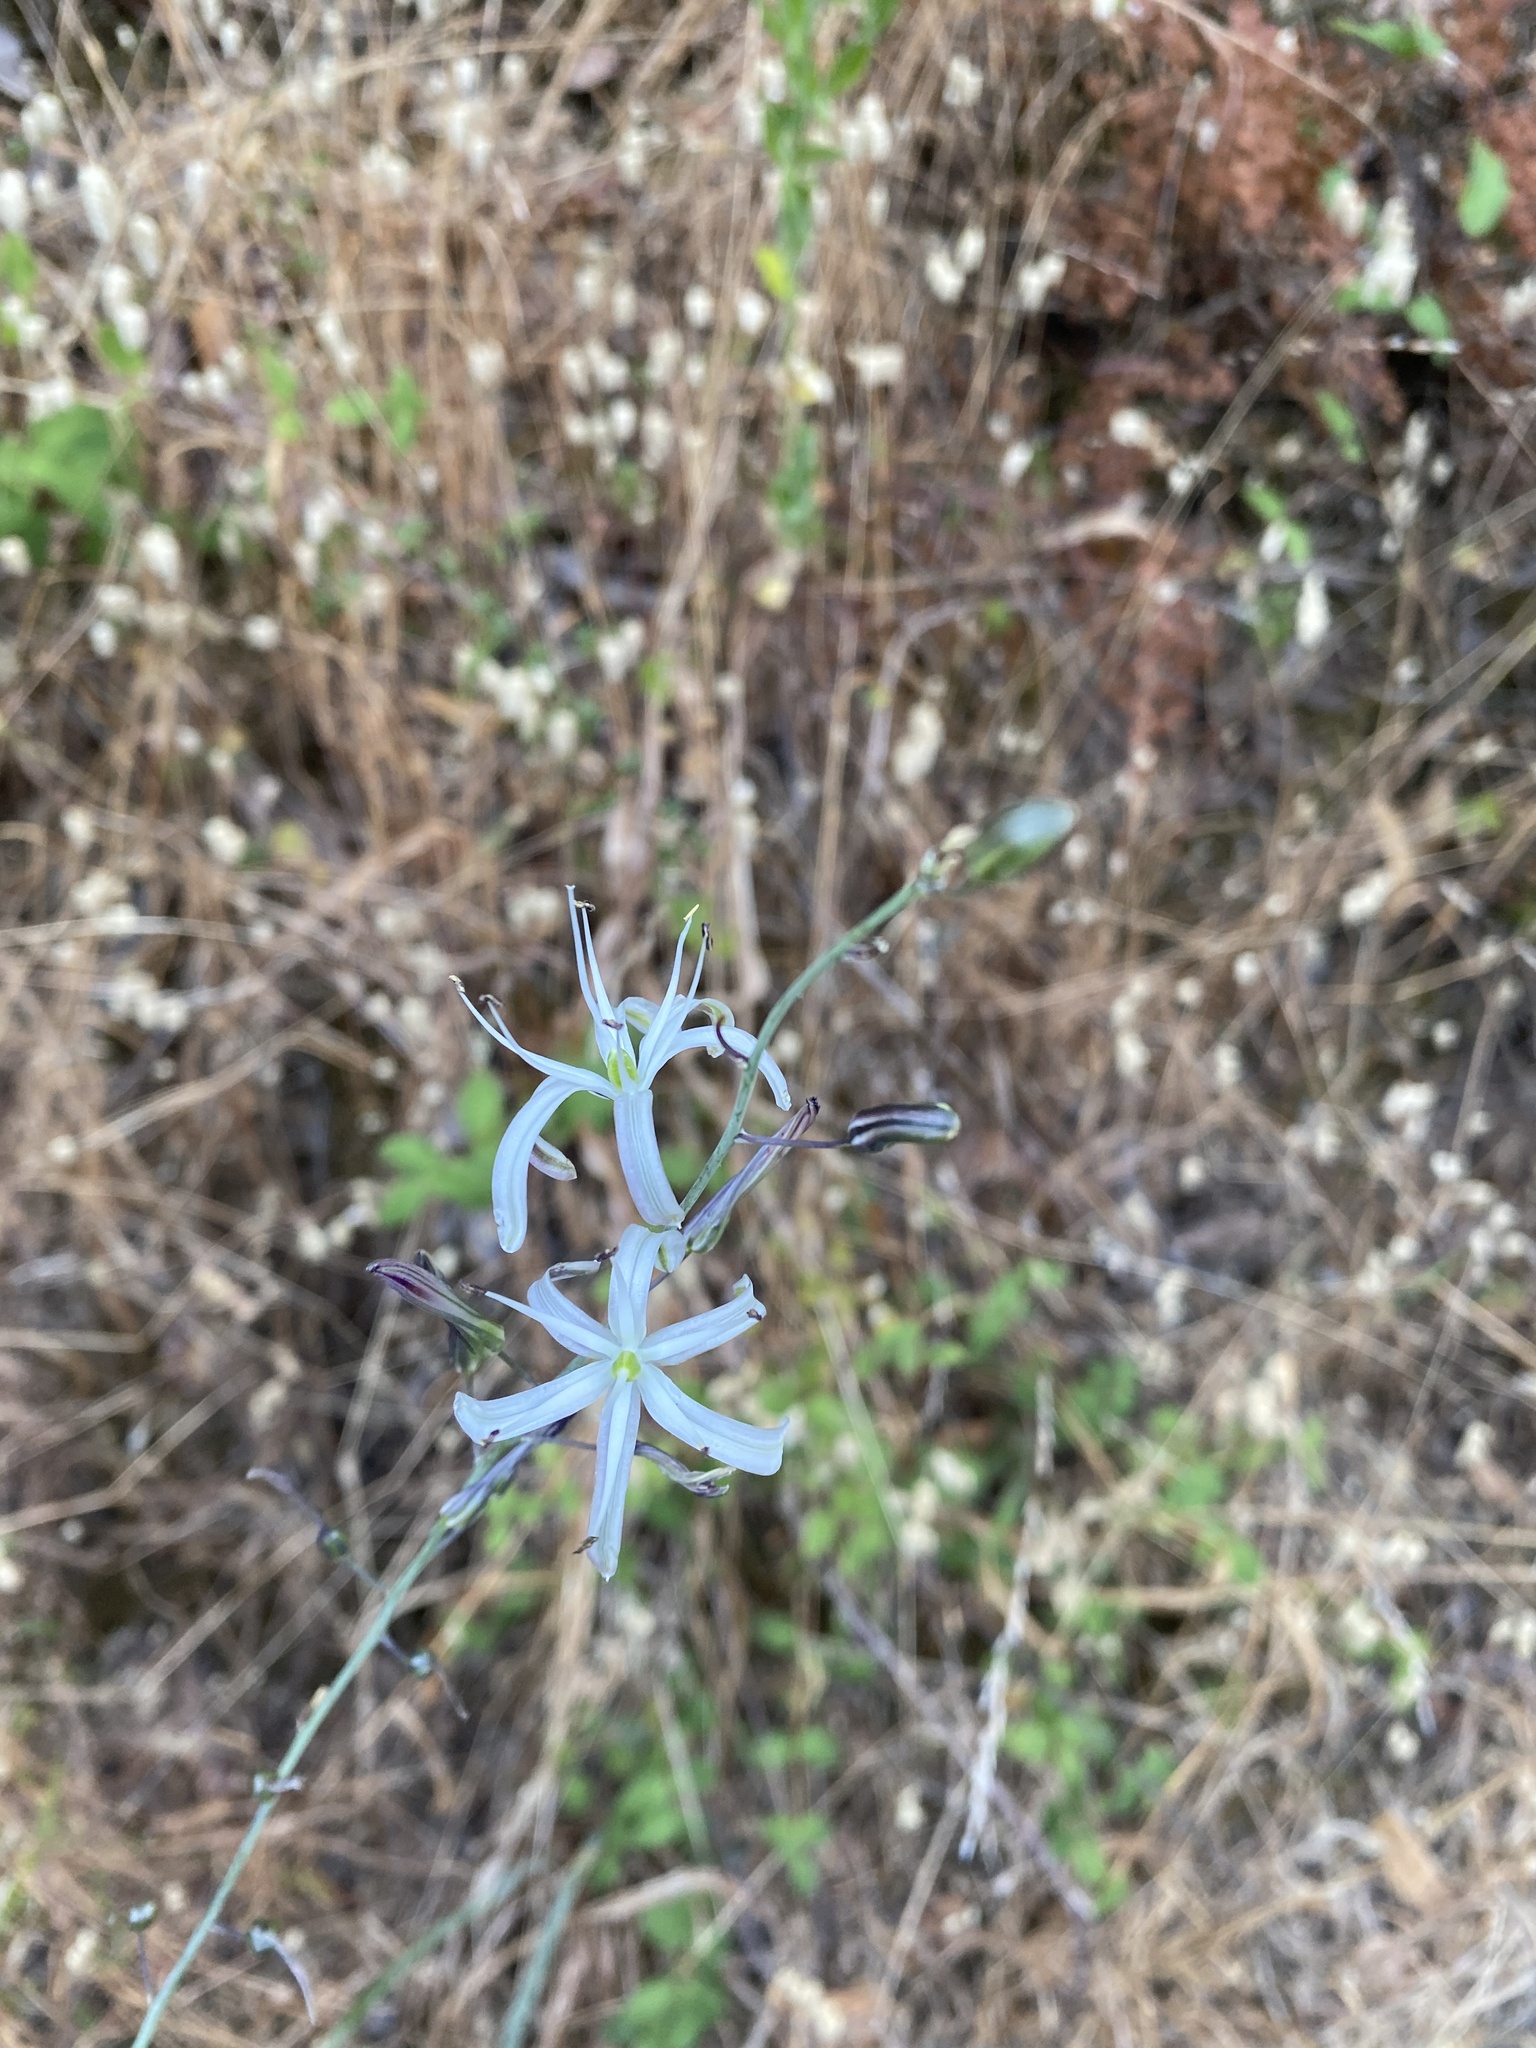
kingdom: Plantae
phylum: Tracheophyta
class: Liliopsida
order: Asparagales
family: Asparagaceae
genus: Chlorogalum
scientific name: Chlorogalum pomeridianum
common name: Amole
